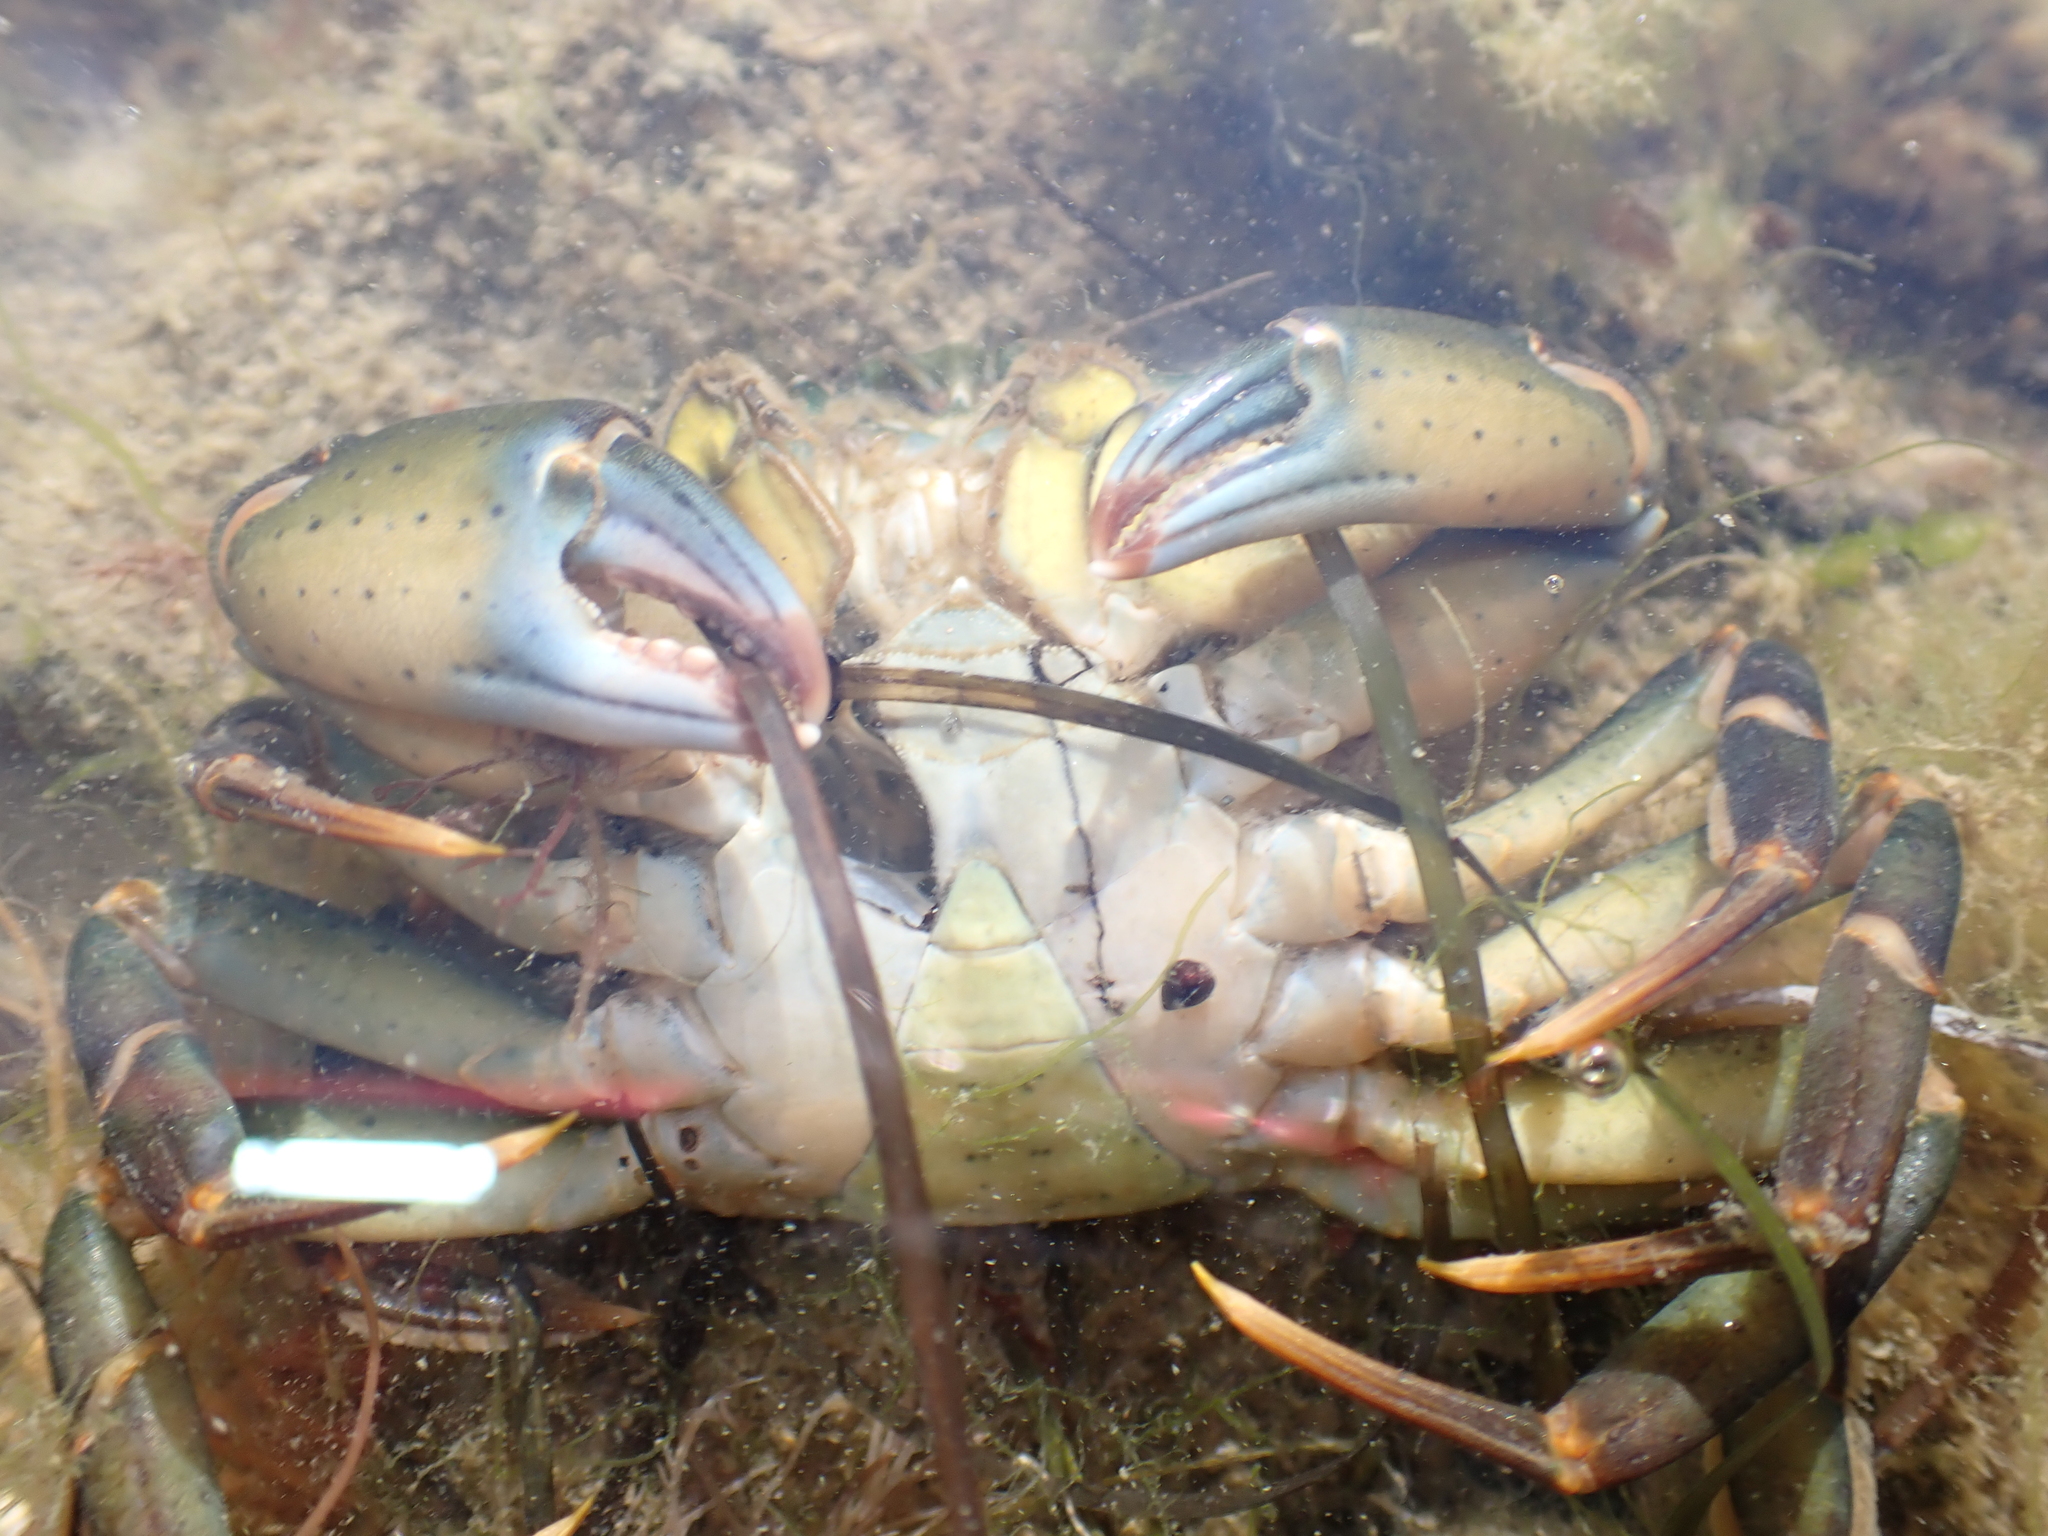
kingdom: Animalia
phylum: Arthropoda
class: Malacostraca
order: Decapoda
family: Carcinidae
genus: Carcinus
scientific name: Carcinus maenas
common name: European green crab
